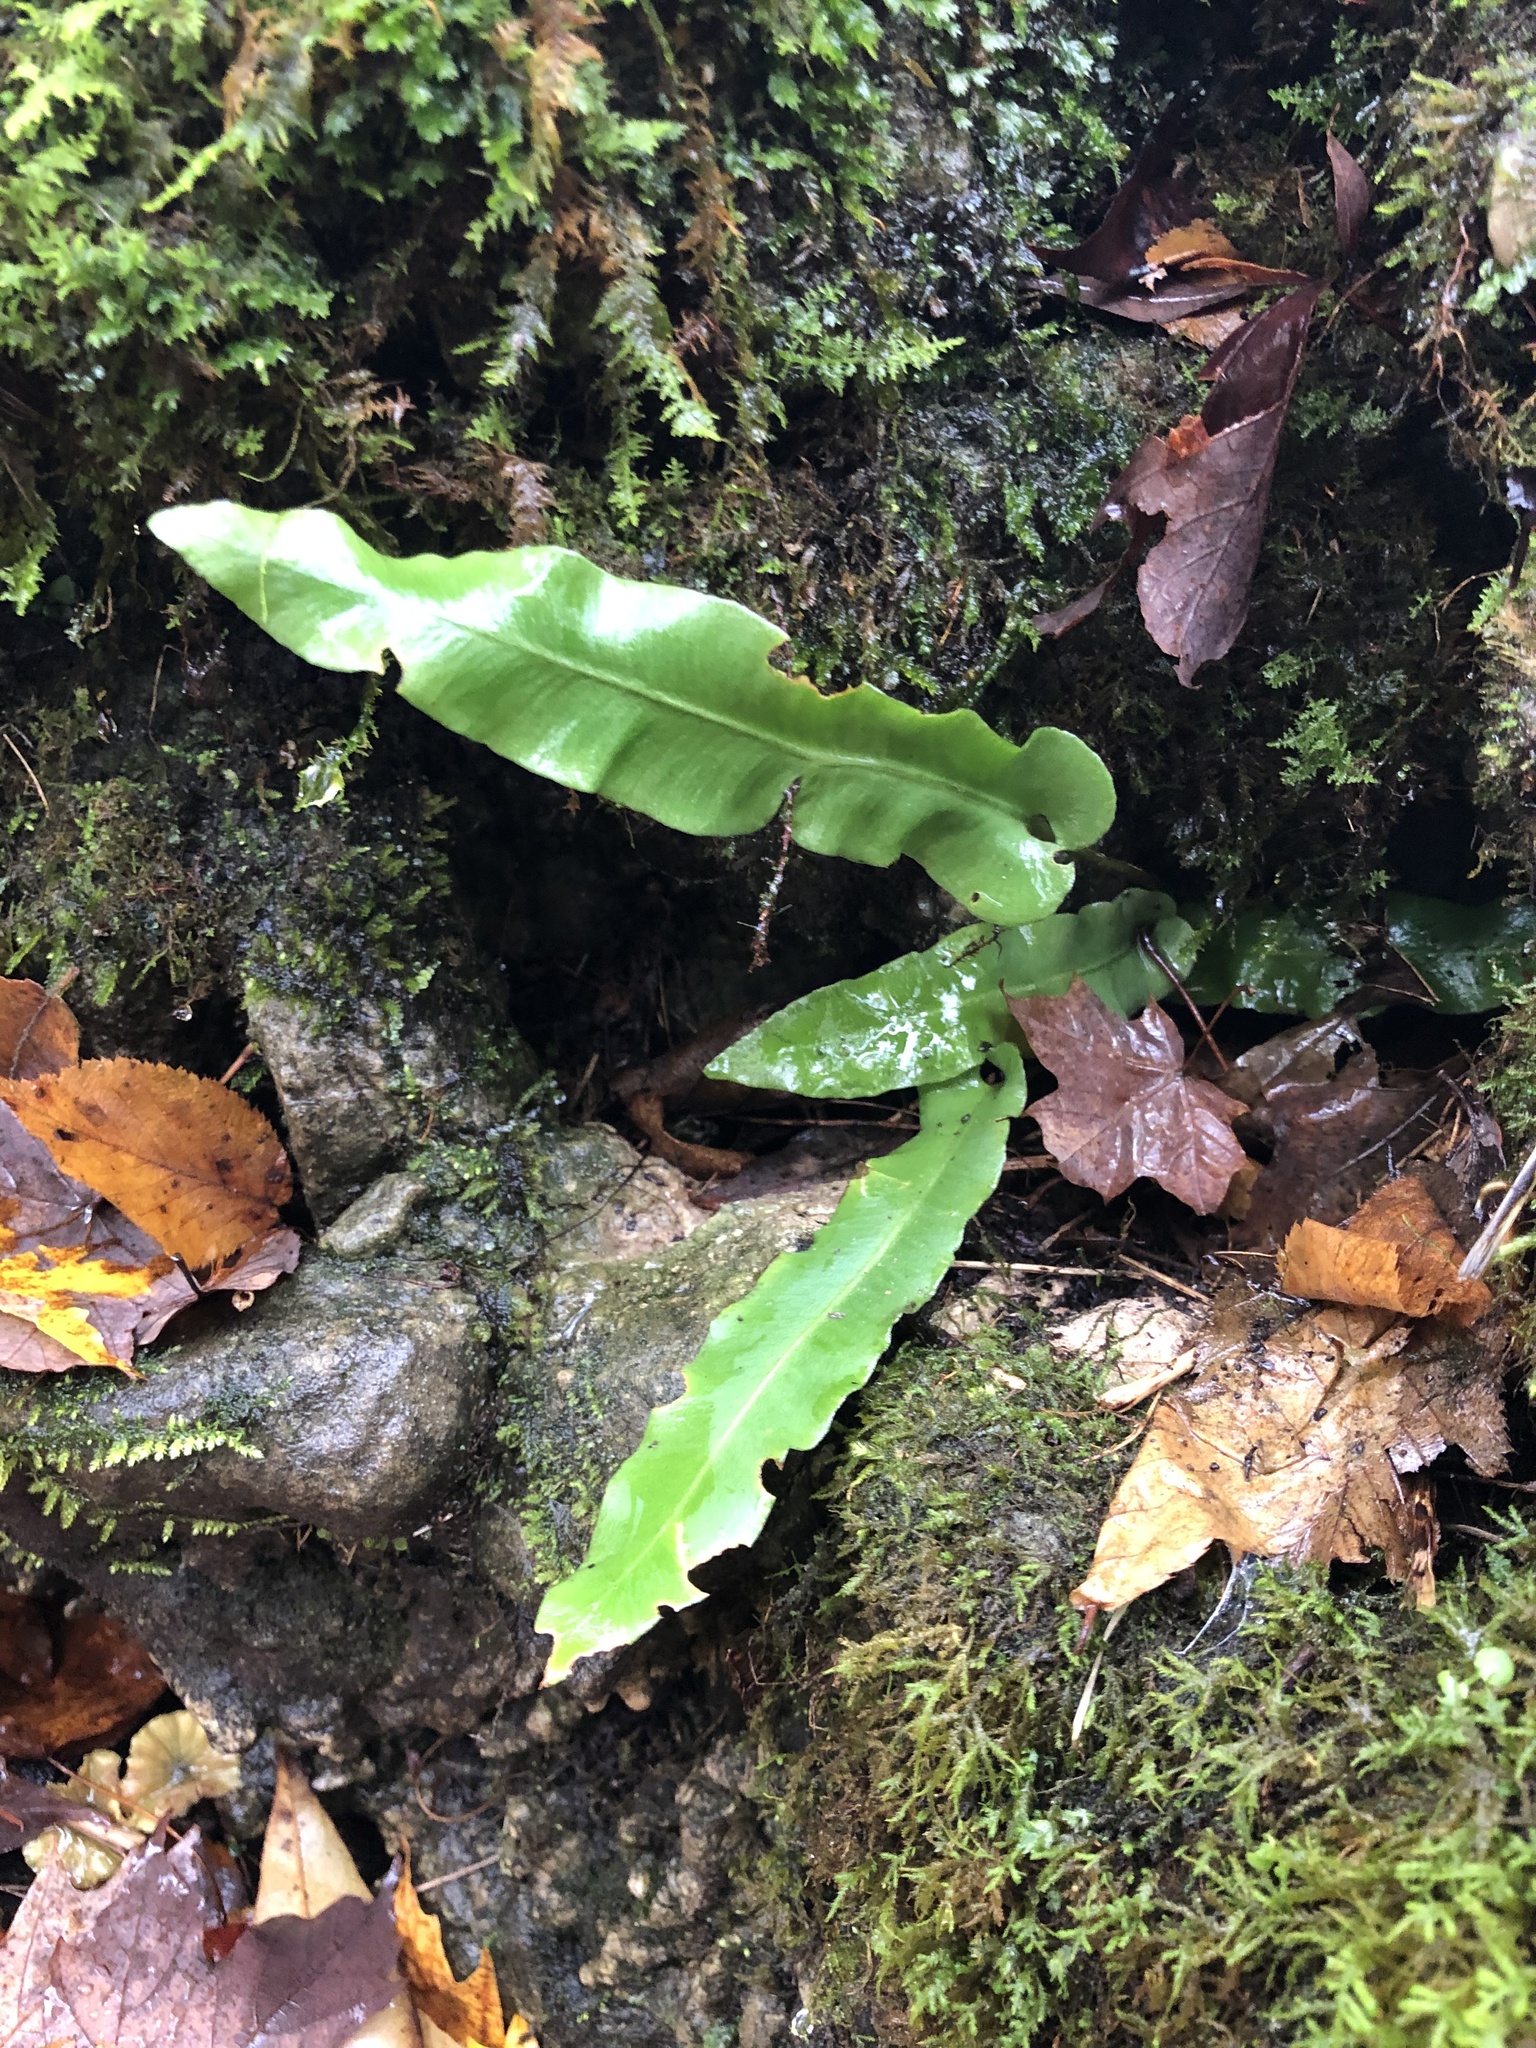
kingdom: Plantae
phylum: Tracheophyta
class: Polypodiopsida
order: Polypodiales
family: Aspleniaceae
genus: Asplenium
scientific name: Asplenium scolopendrium
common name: Hart's-tongue fern
